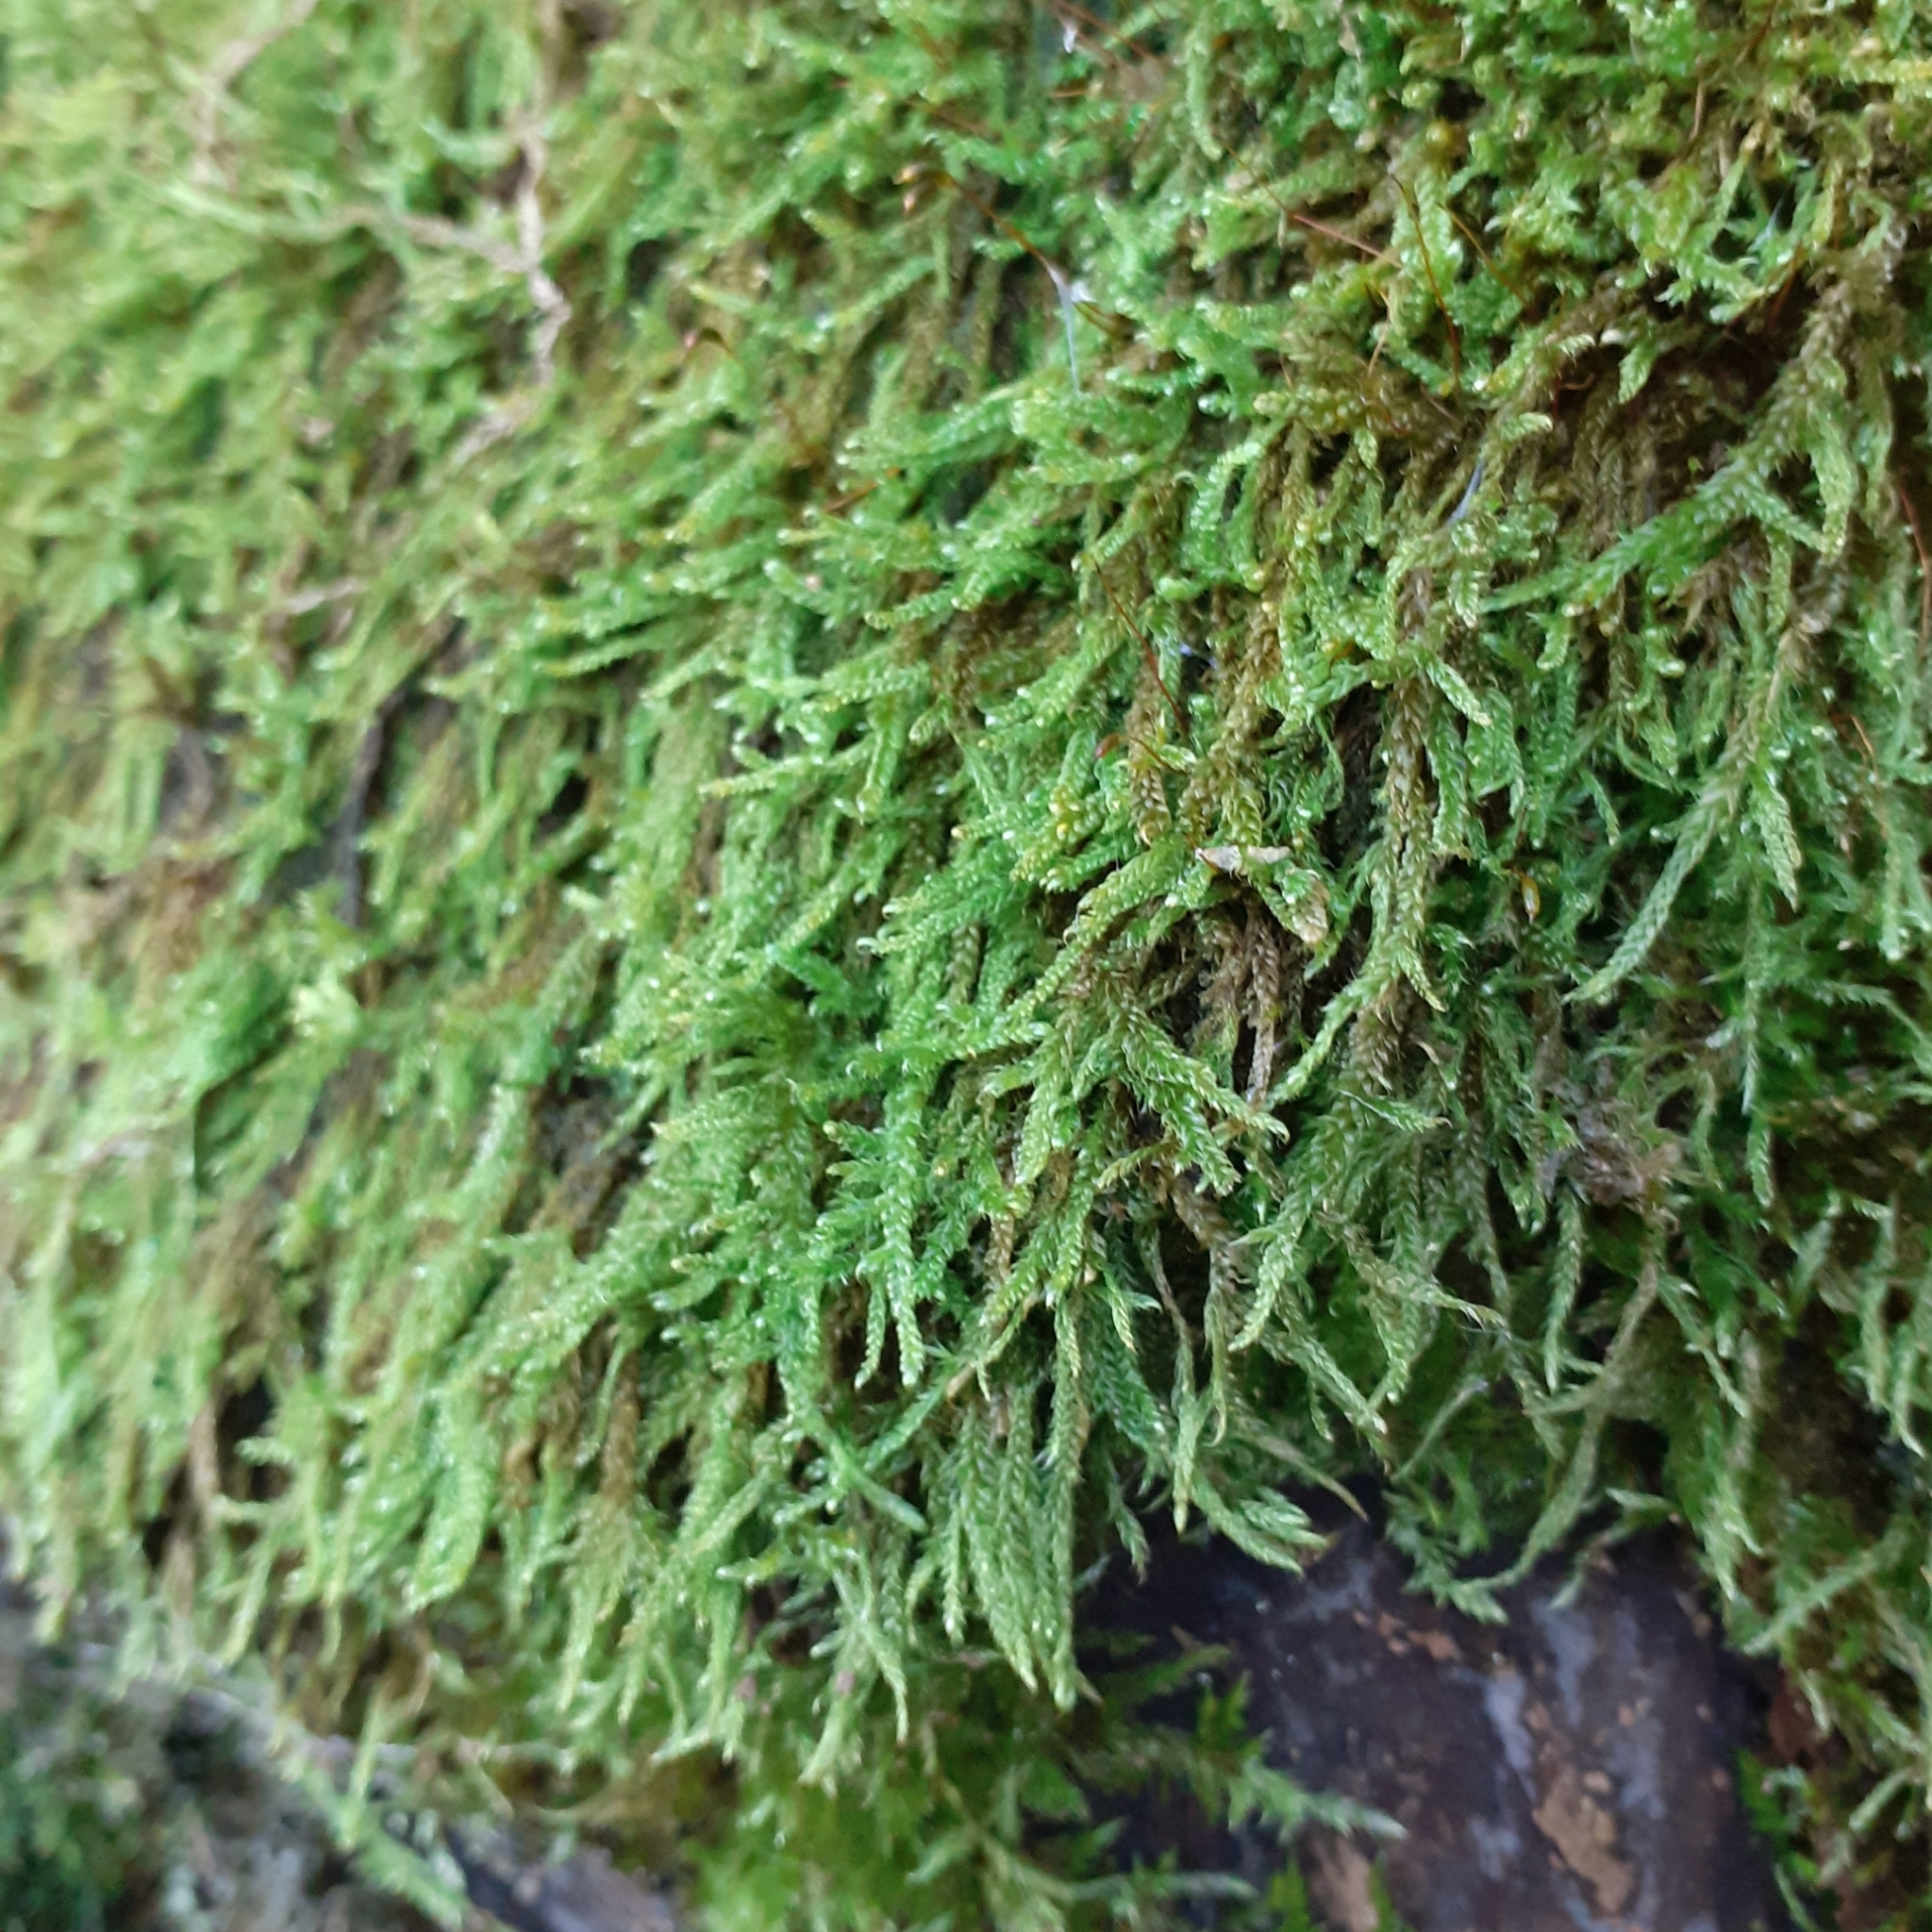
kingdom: Plantae
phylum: Bryophyta
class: Bryopsida
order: Hypnales
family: Hypnaceae
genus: Hypnum
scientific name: Hypnum cupressiforme
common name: Cypress-leaved plait-moss
